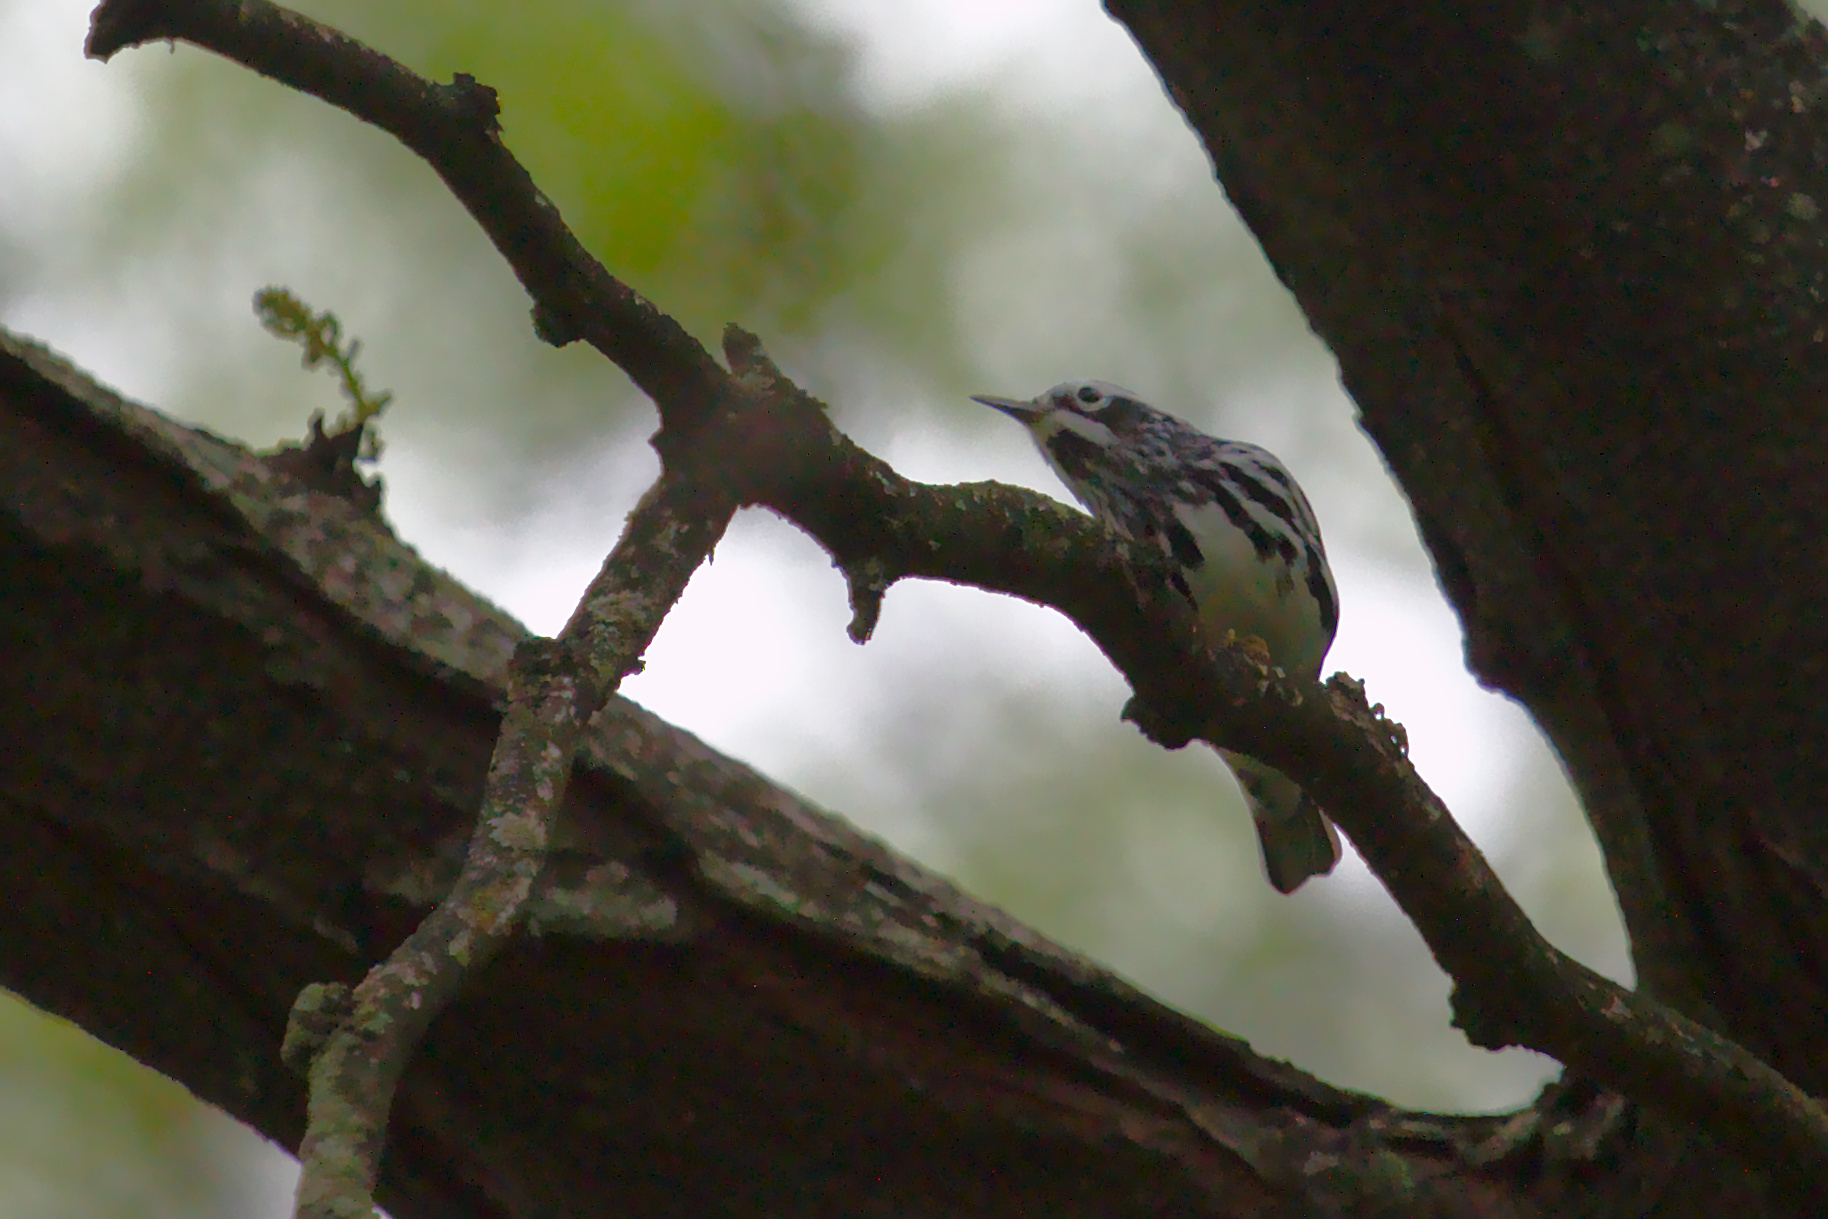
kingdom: Animalia
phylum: Chordata
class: Aves
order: Passeriformes
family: Parulidae
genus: Mniotilta
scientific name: Mniotilta varia
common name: Black-and-white warbler
